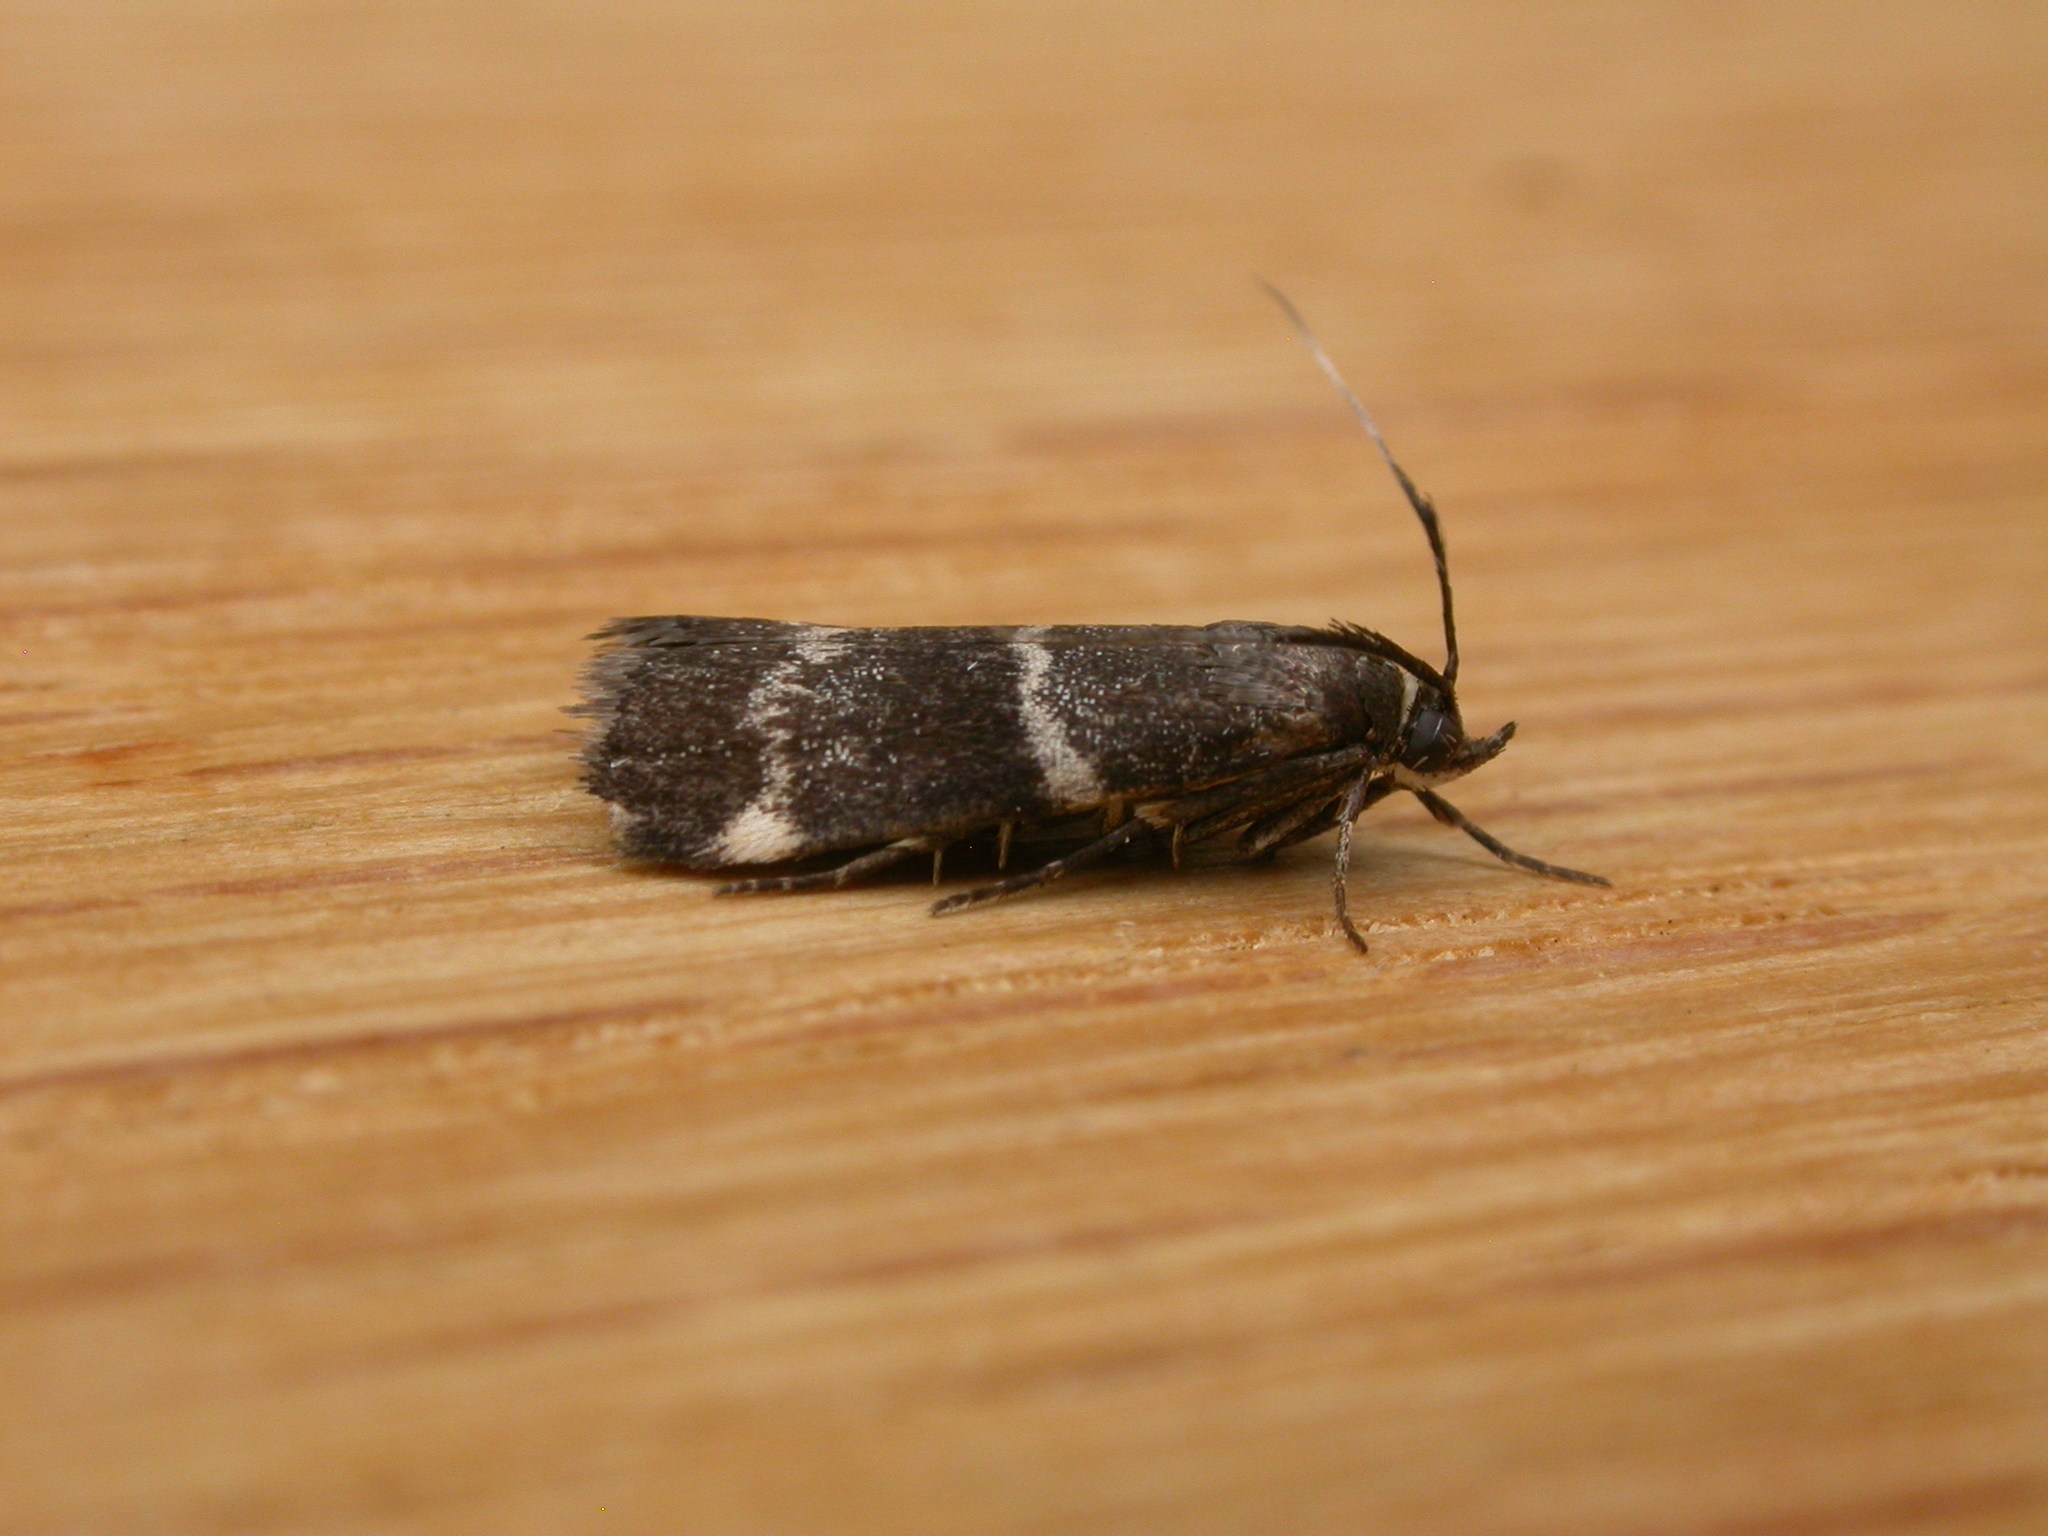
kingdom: Animalia
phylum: Arthropoda
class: Insecta
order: Lepidoptera
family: Pyralidae
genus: Lasiosticha
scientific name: Lasiosticha canilinea
